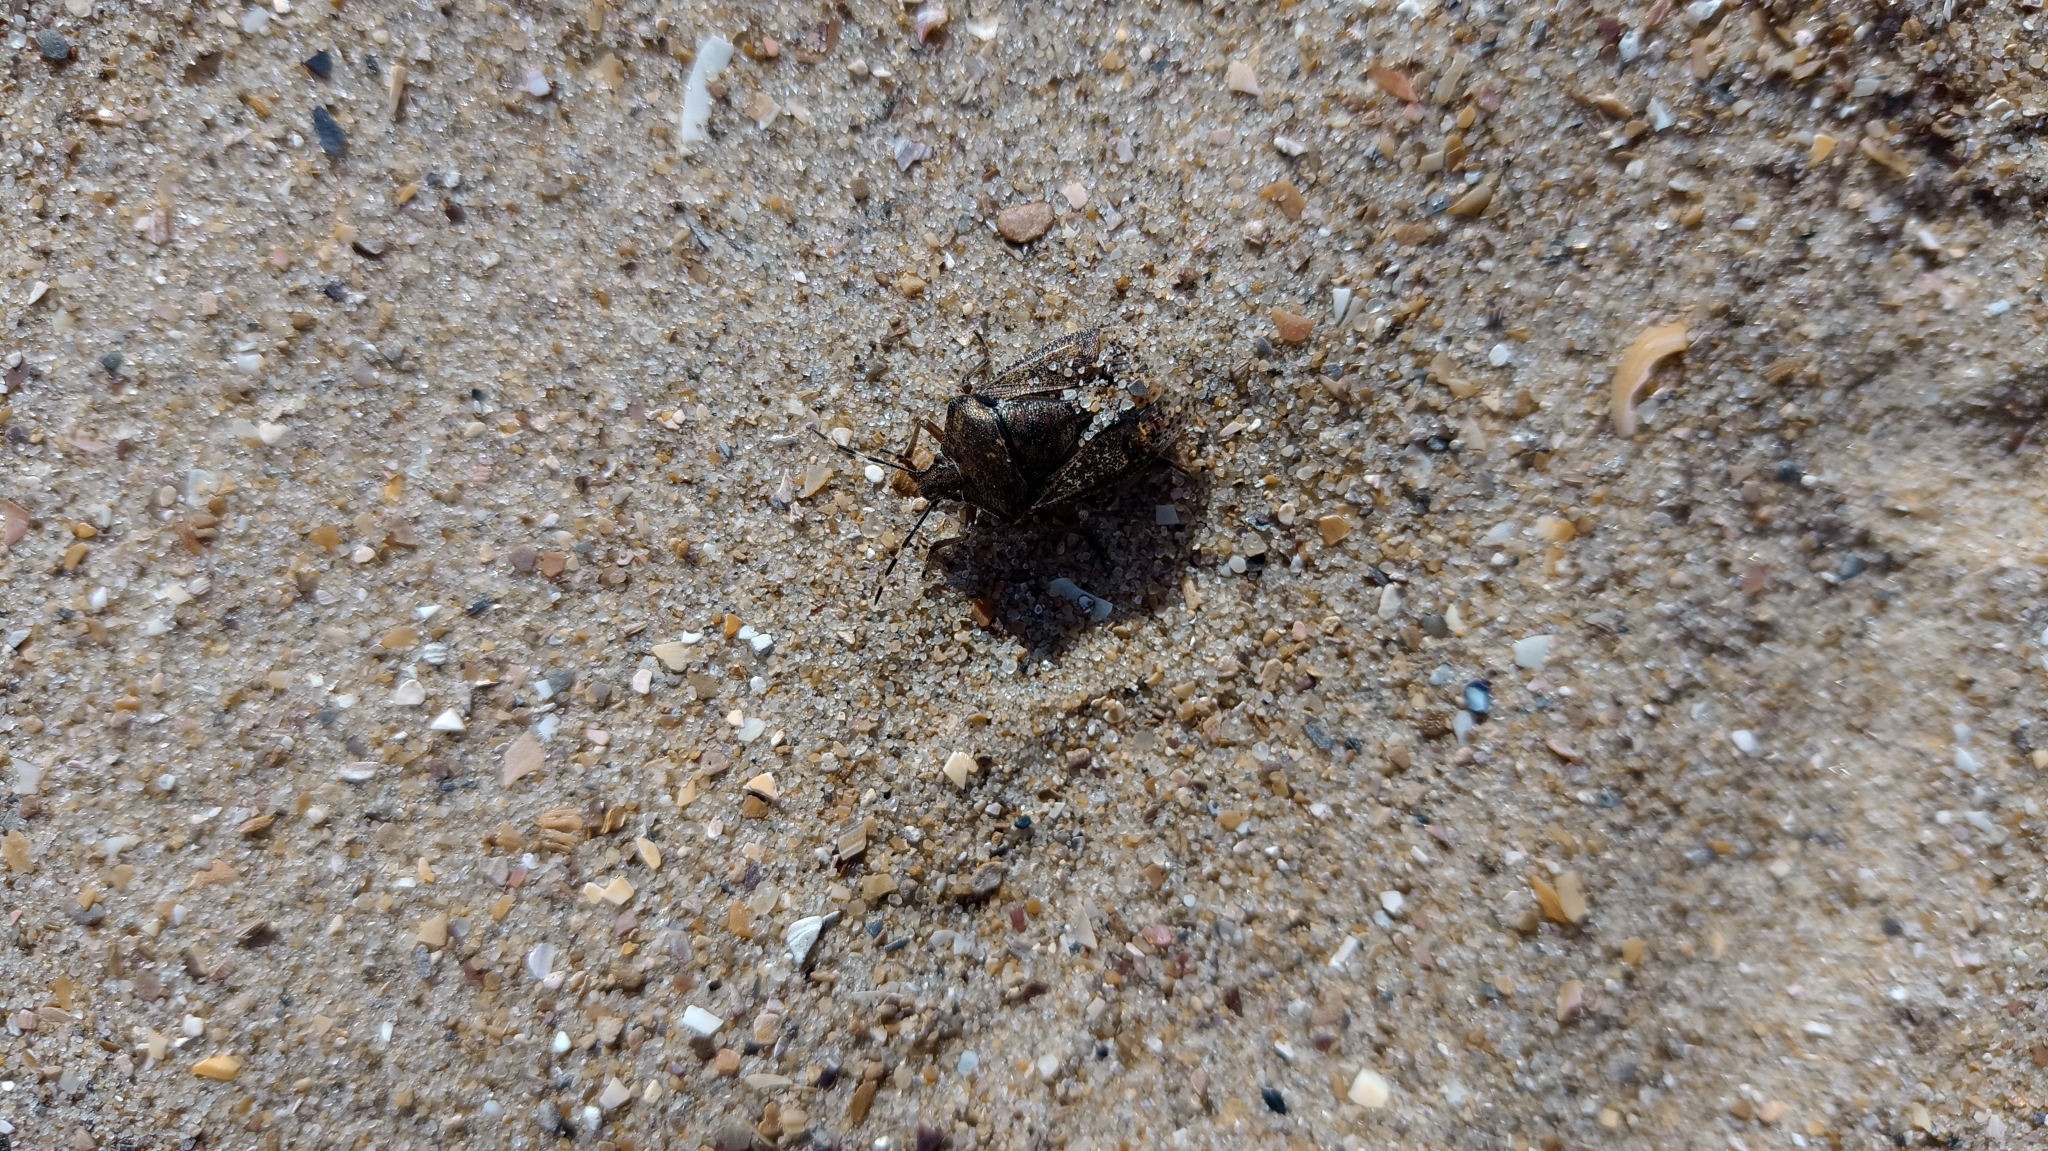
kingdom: Animalia
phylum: Arthropoda
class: Insecta
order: Hemiptera
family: Pentatomidae
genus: Rhaphigaster
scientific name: Rhaphigaster nebulosa
